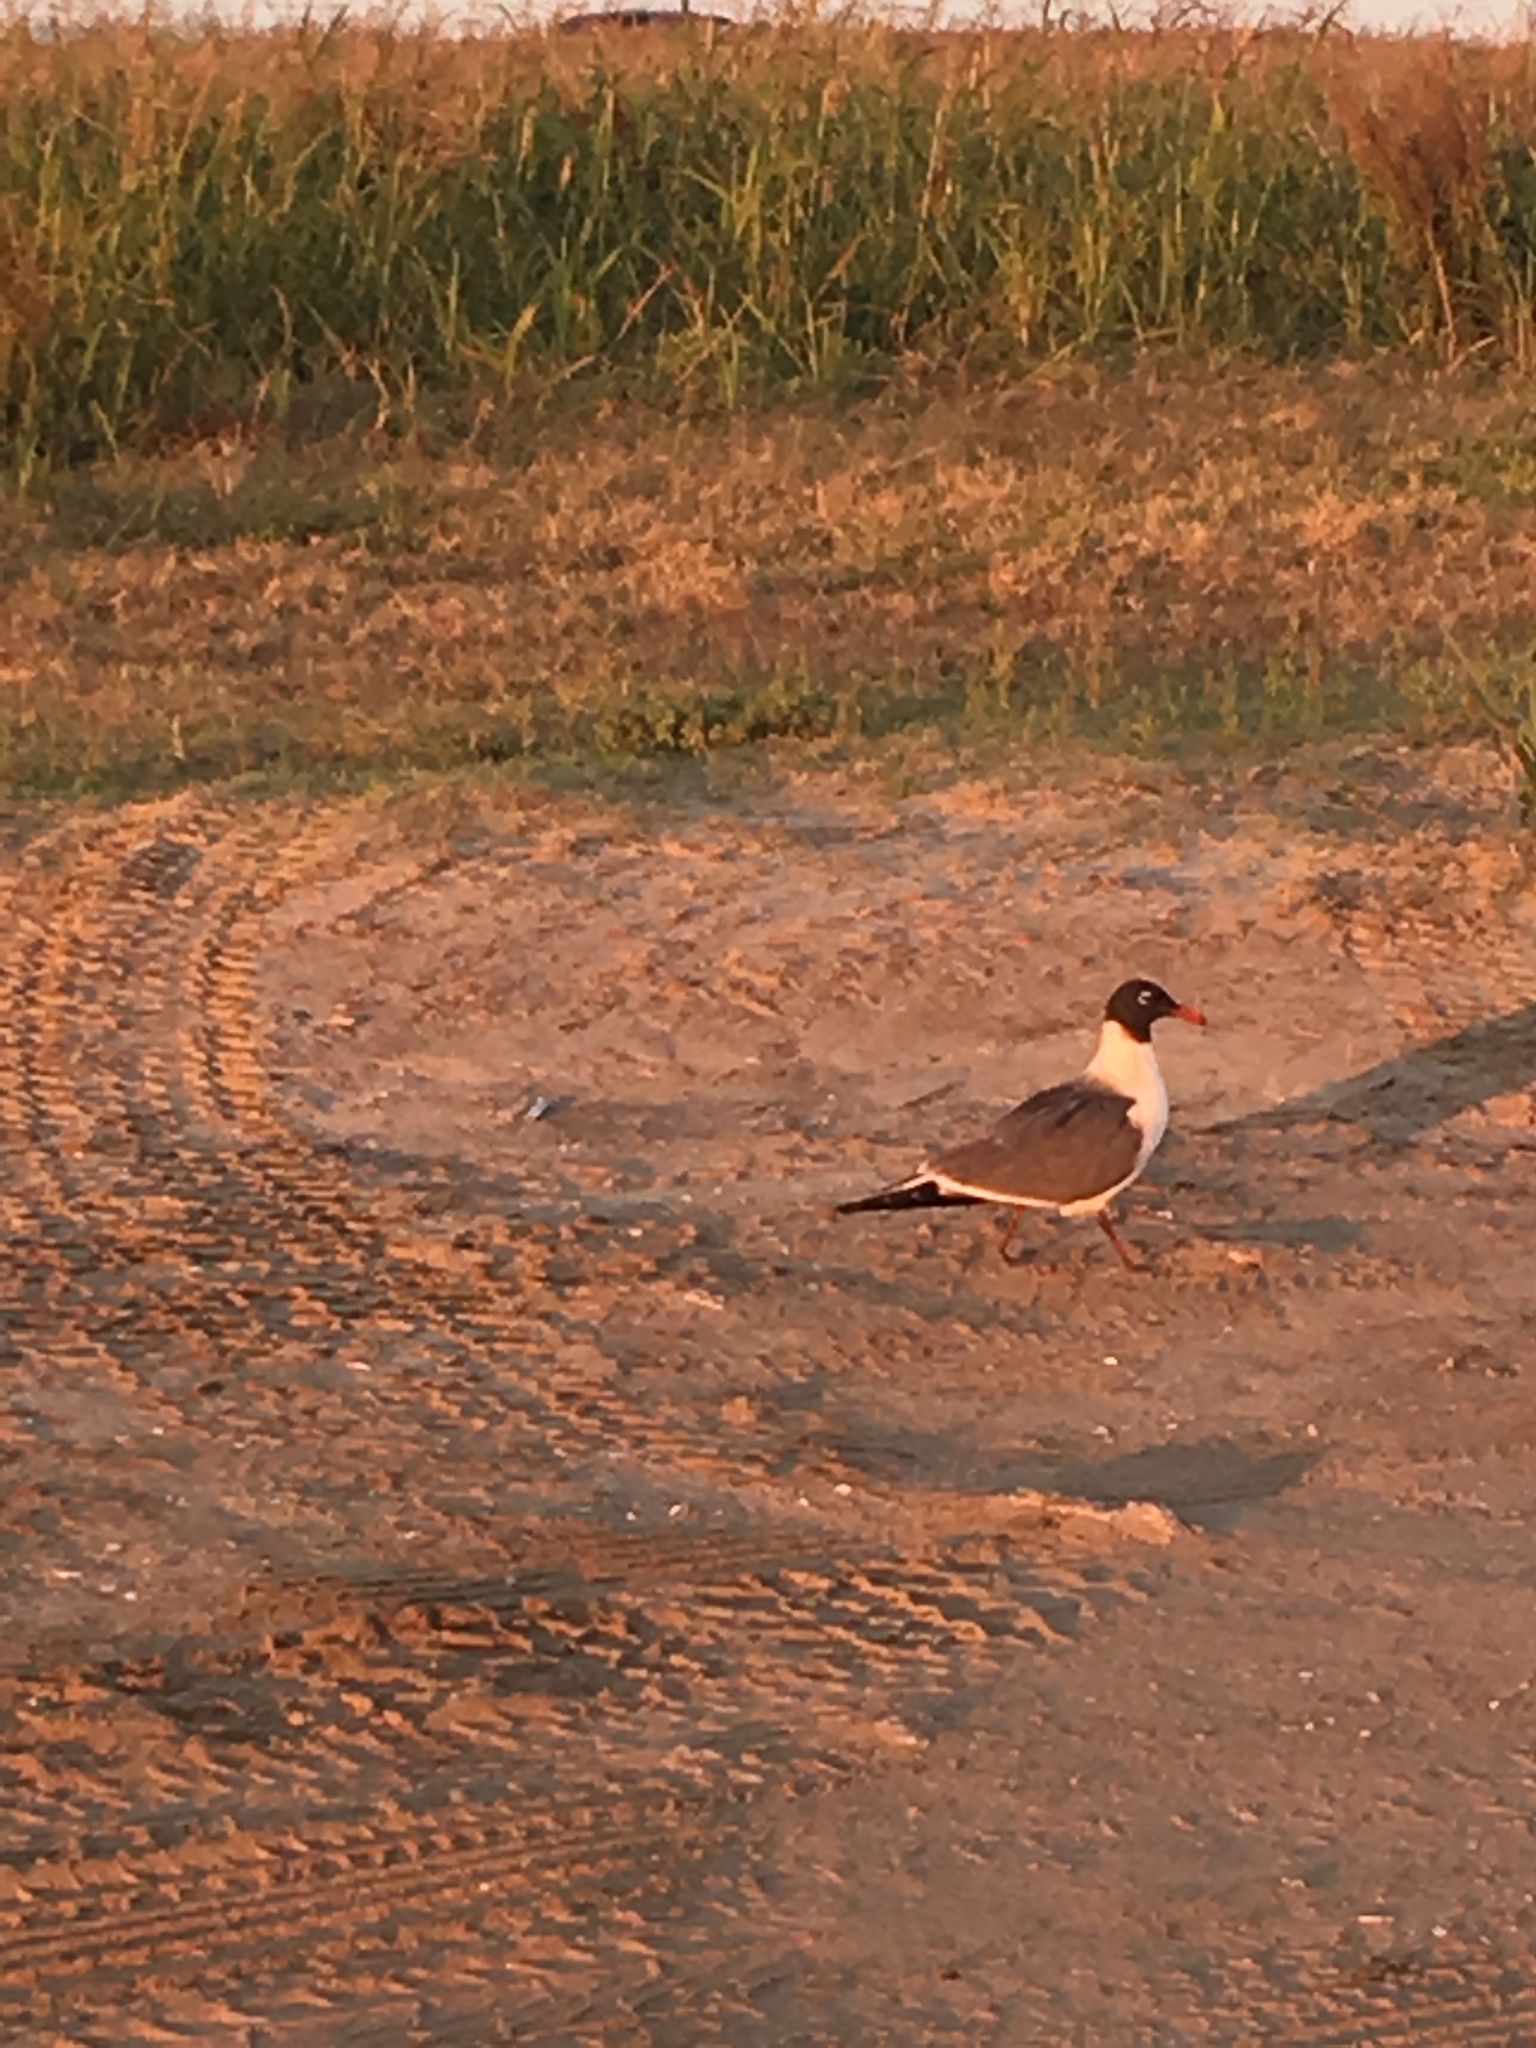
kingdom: Animalia
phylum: Chordata
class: Aves
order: Charadriiformes
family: Laridae
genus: Leucophaeus
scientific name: Leucophaeus atricilla
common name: Laughing gull
